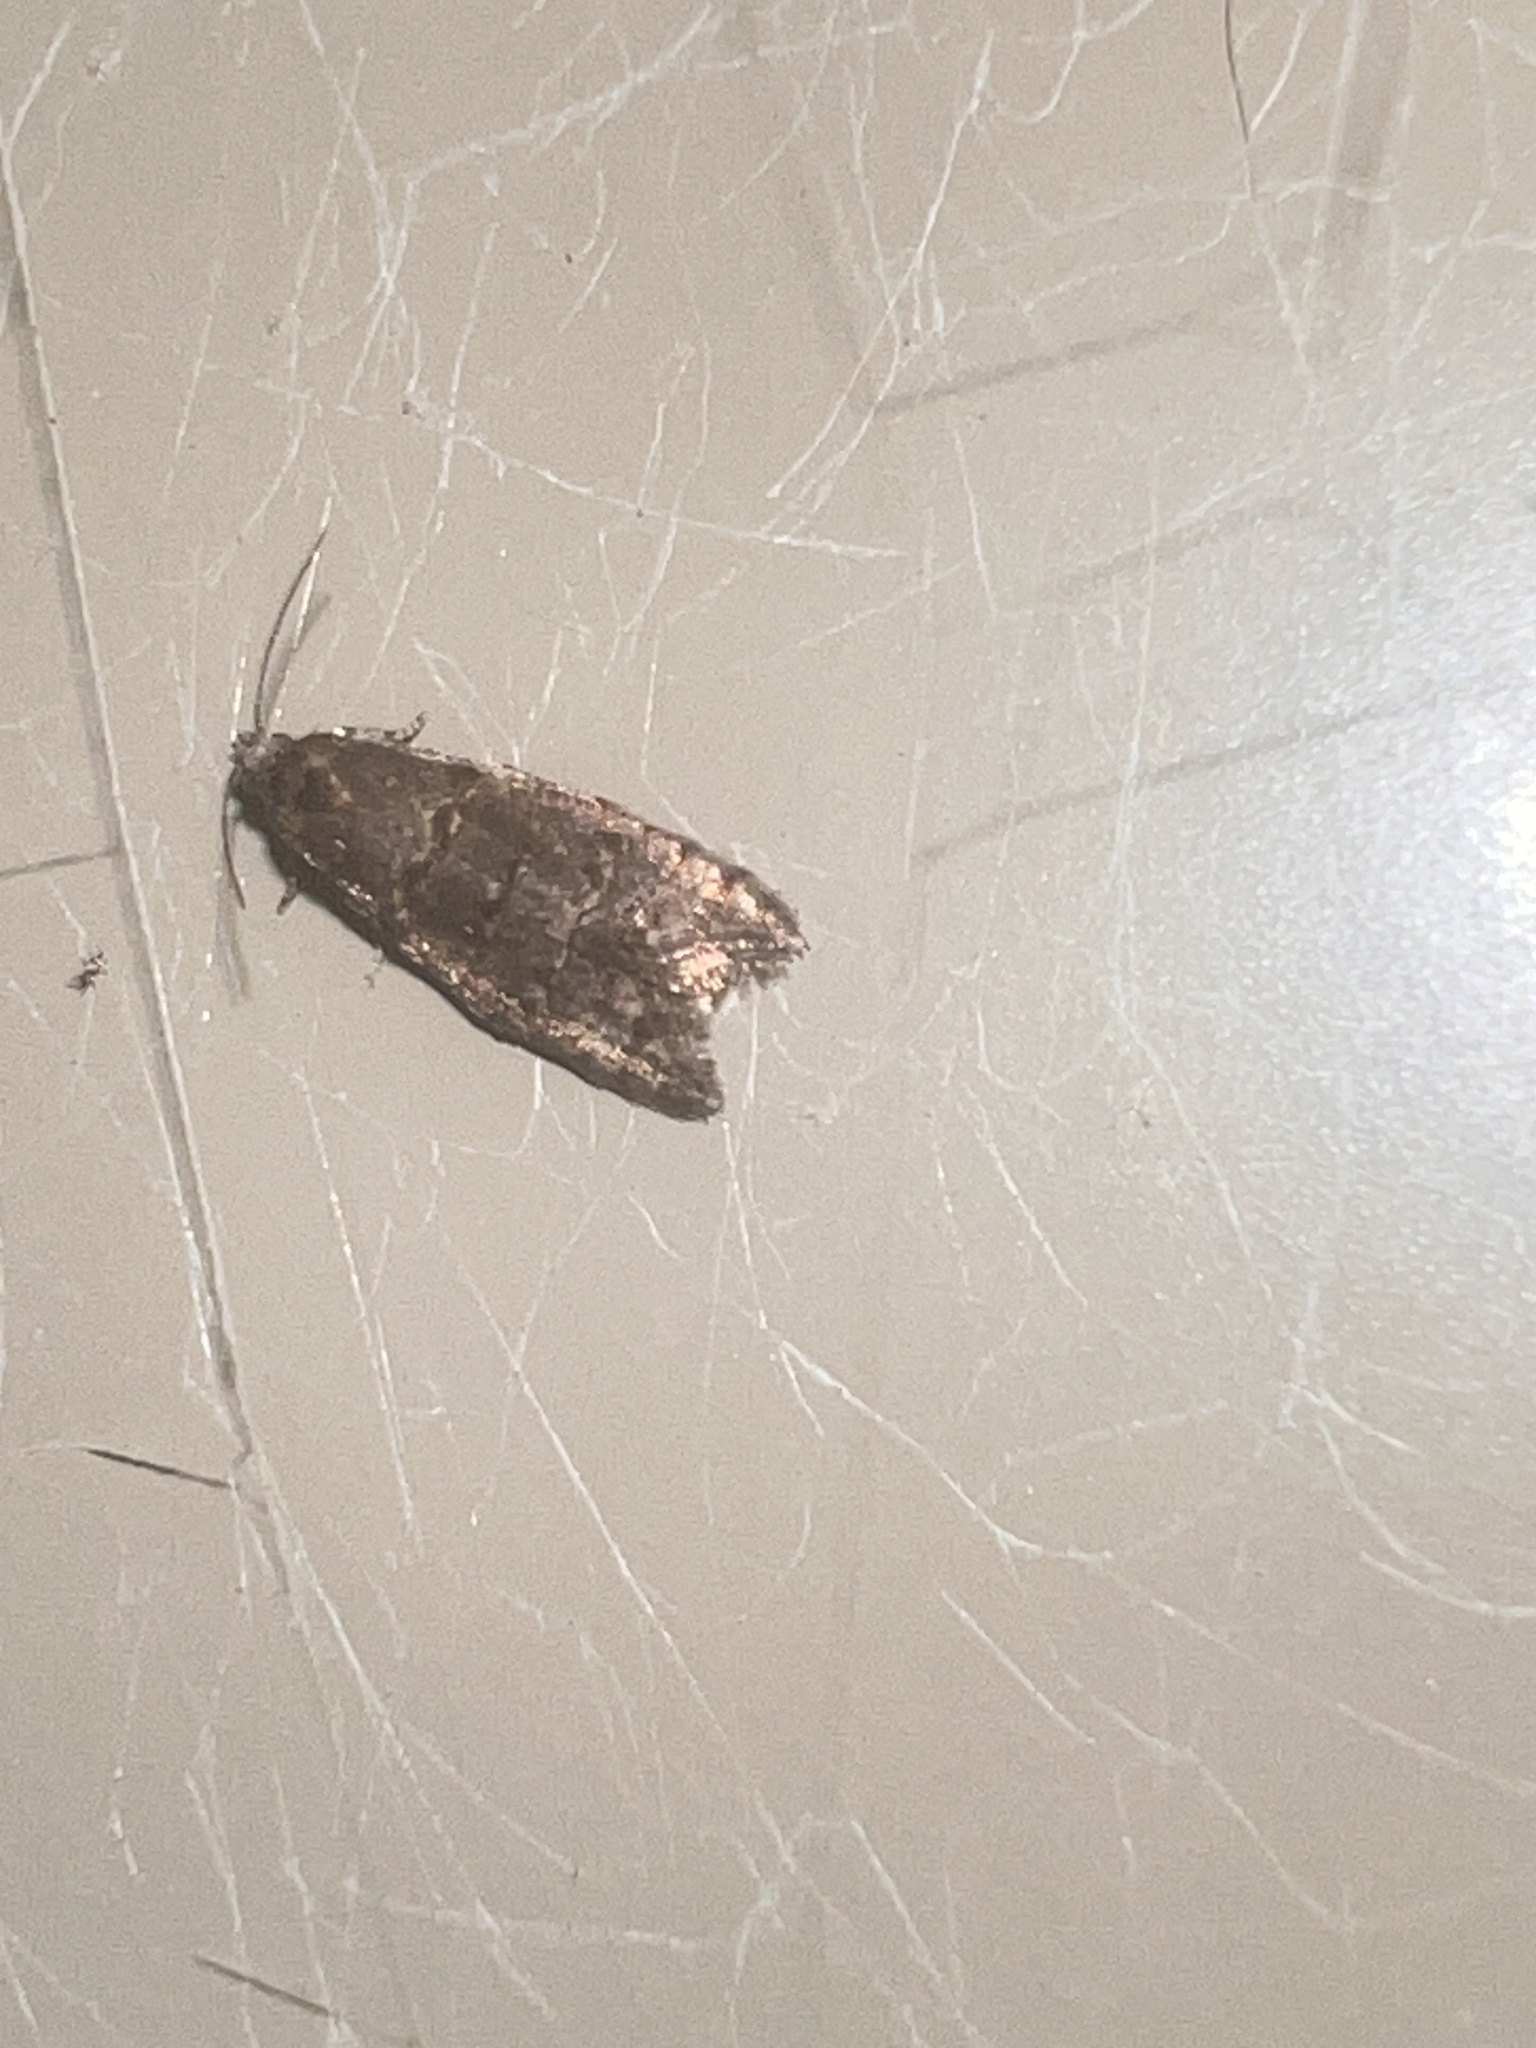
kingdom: Animalia
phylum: Arthropoda
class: Insecta
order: Lepidoptera
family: Tortricidae
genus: Lopharcha
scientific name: Lopharcha insolita
